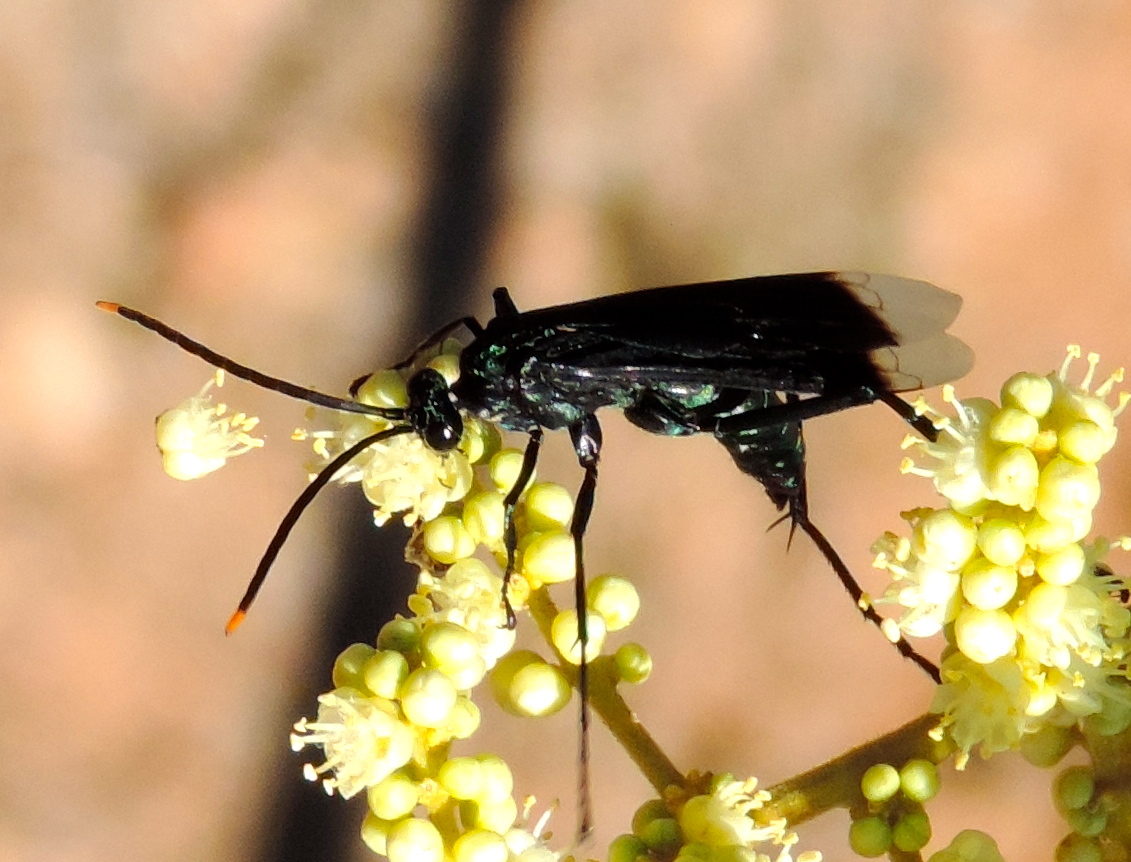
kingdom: Animalia
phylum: Arthropoda
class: Insecta
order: Hymenoptera
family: Pompilidae
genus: Pepsis
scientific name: Pepsis
